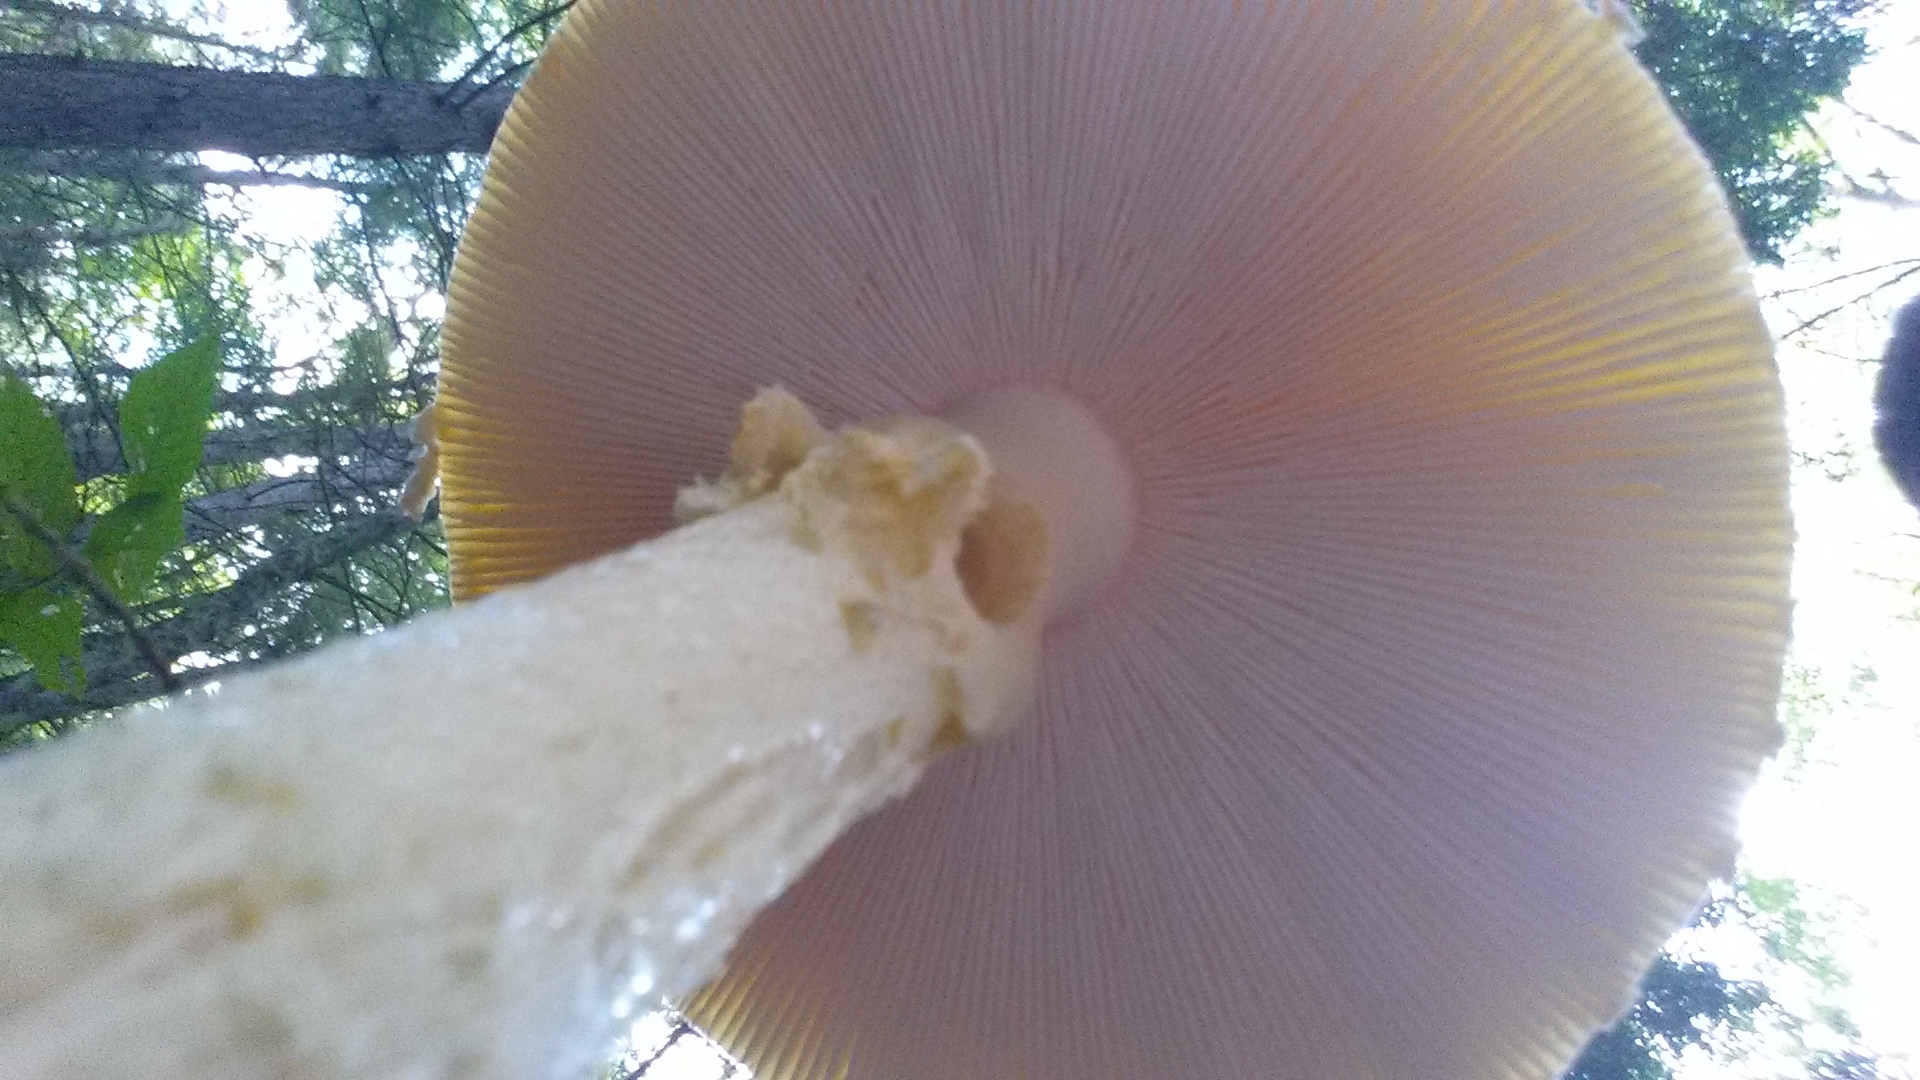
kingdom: Fungi
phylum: Basidiomycota
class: Agaricomycetes
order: Agaricales
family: Amanitaceae
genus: Amanita
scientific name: Amanita muscaria
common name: Fly agaric
